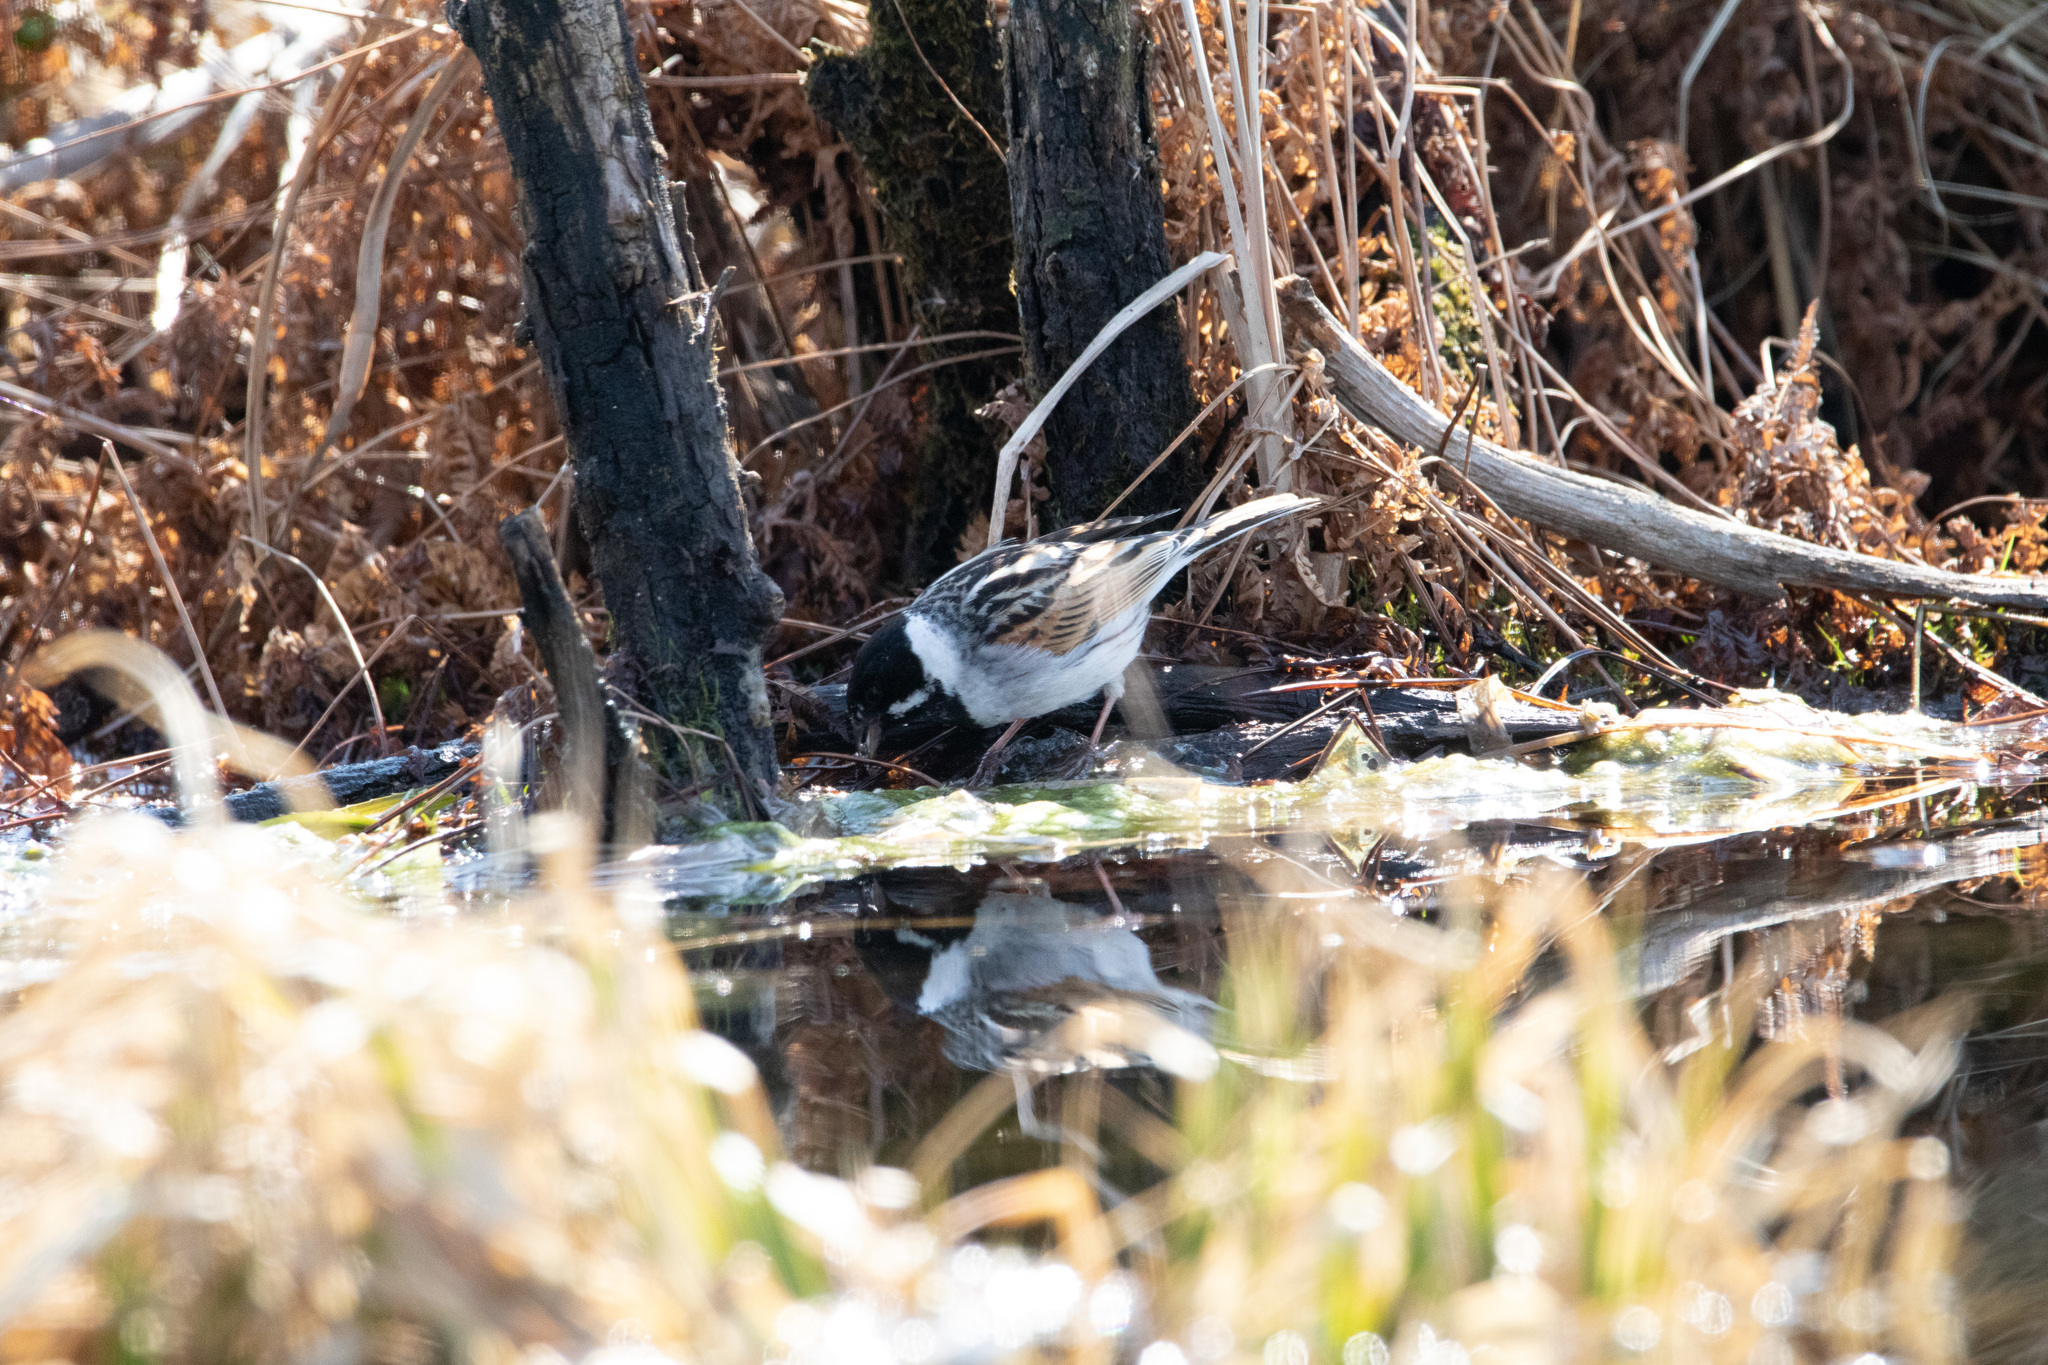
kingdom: Animalia
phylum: Chordata
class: Aves
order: Passeriformes
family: Emberizidae
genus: Emberiza
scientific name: Emberiza schoeniclus
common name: Reed bunting
